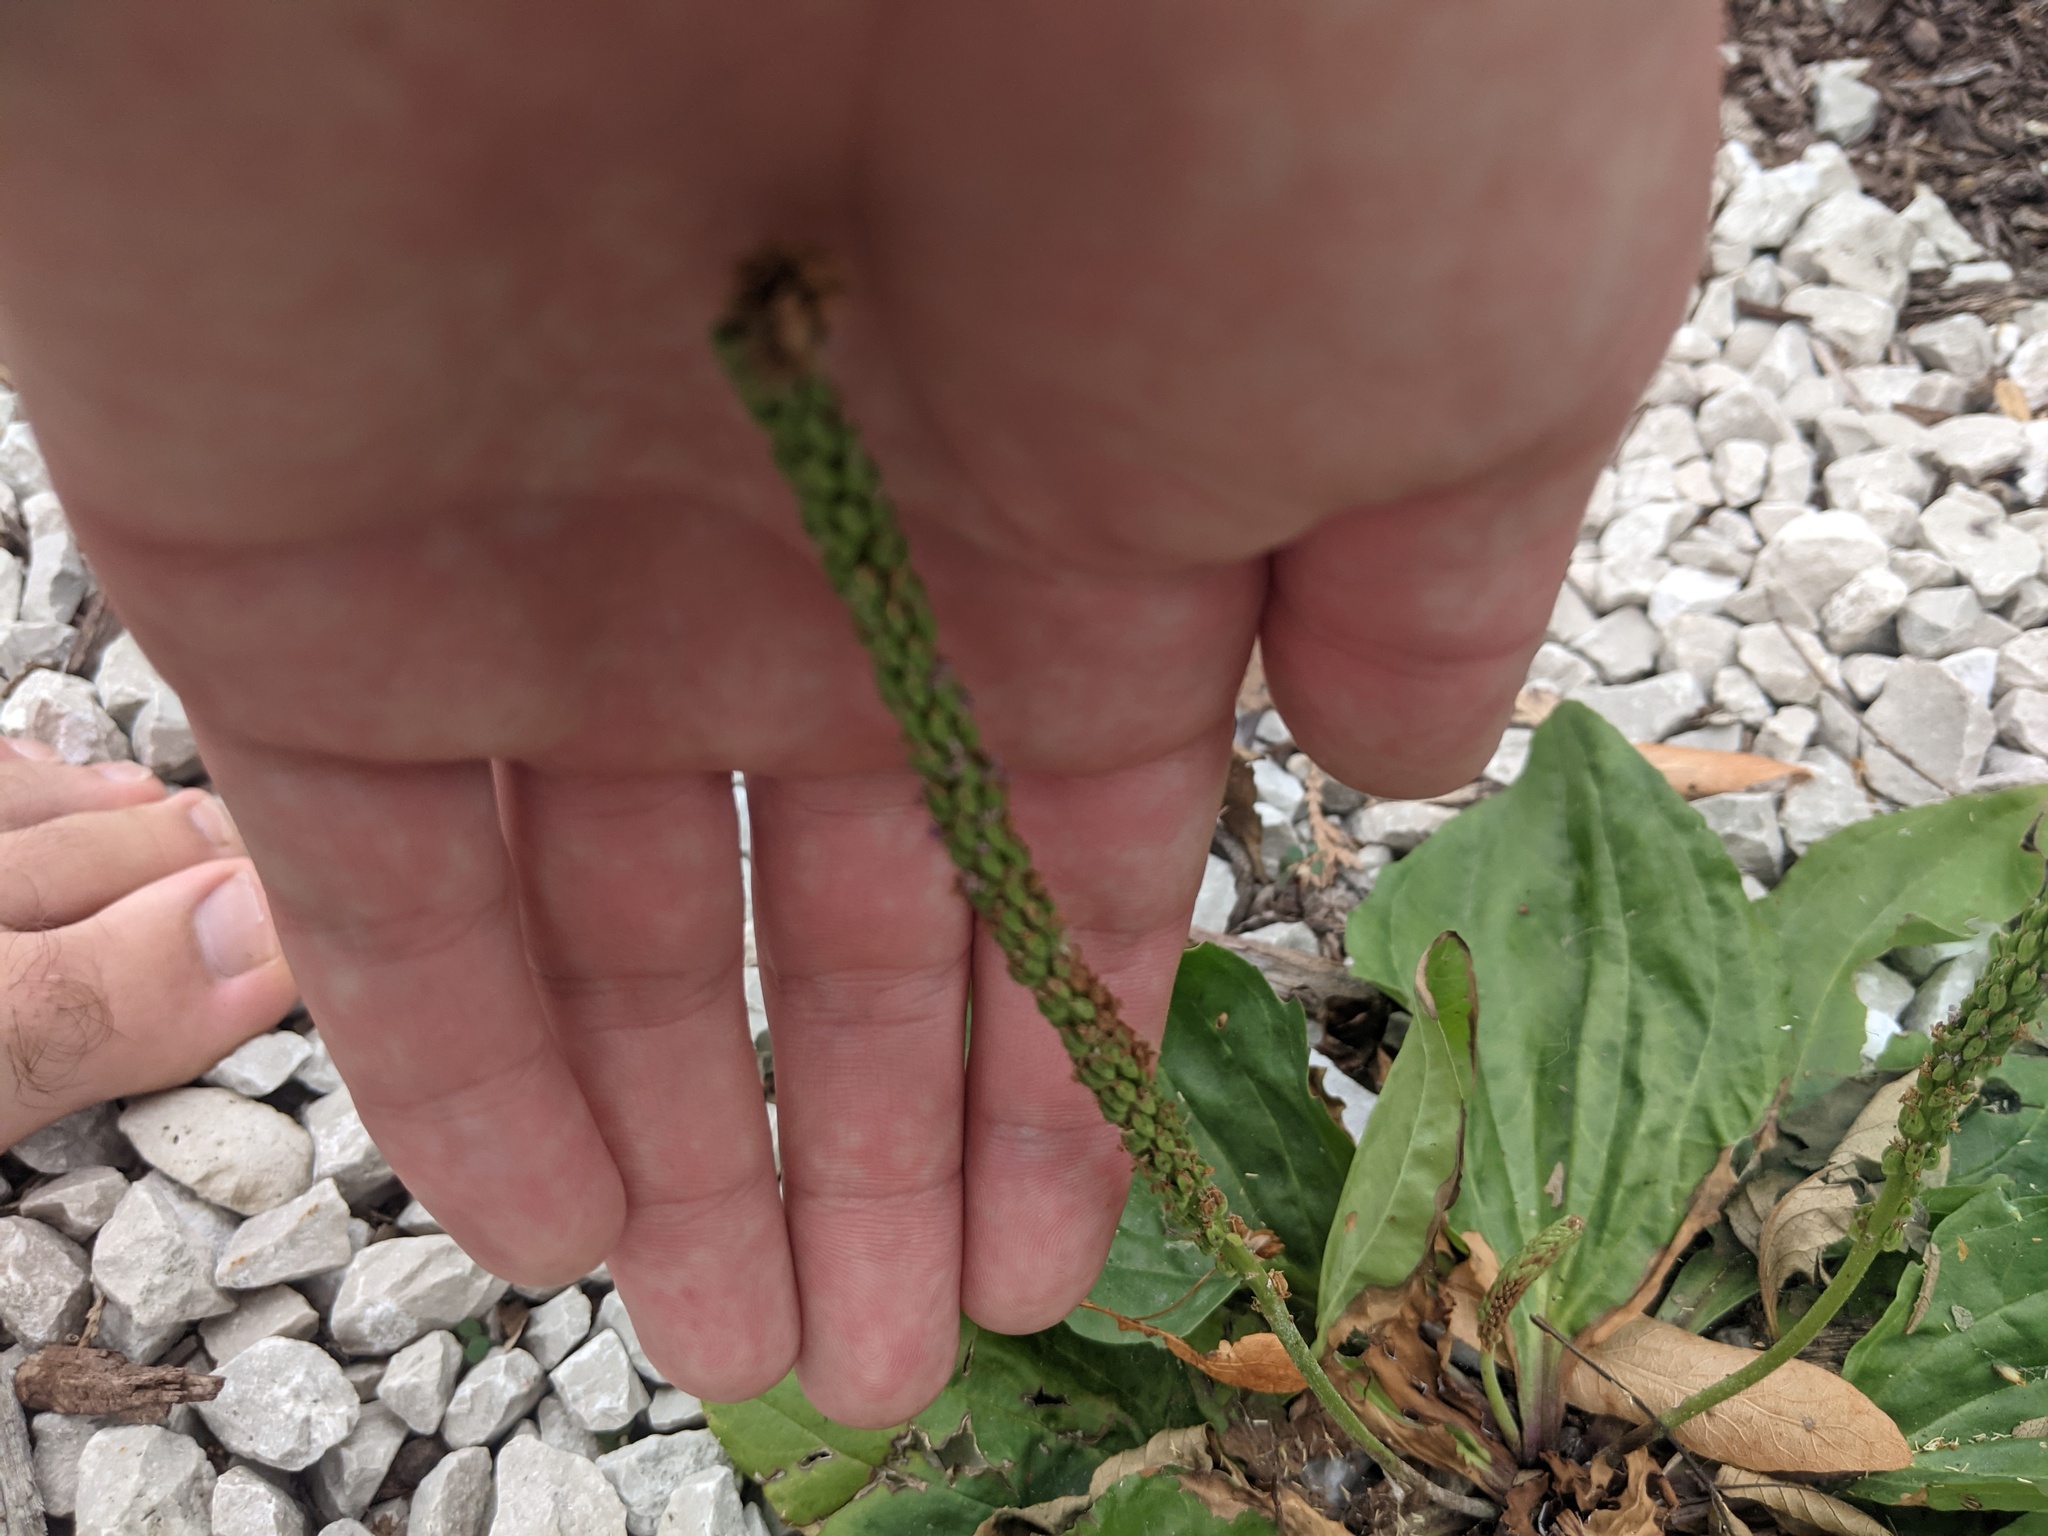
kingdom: Plantae
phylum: Tracheophyta
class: Magnoliopsida
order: Lamiales
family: Plantaginaceae
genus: Plantago
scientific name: Plantago rugelii
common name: American plantain
